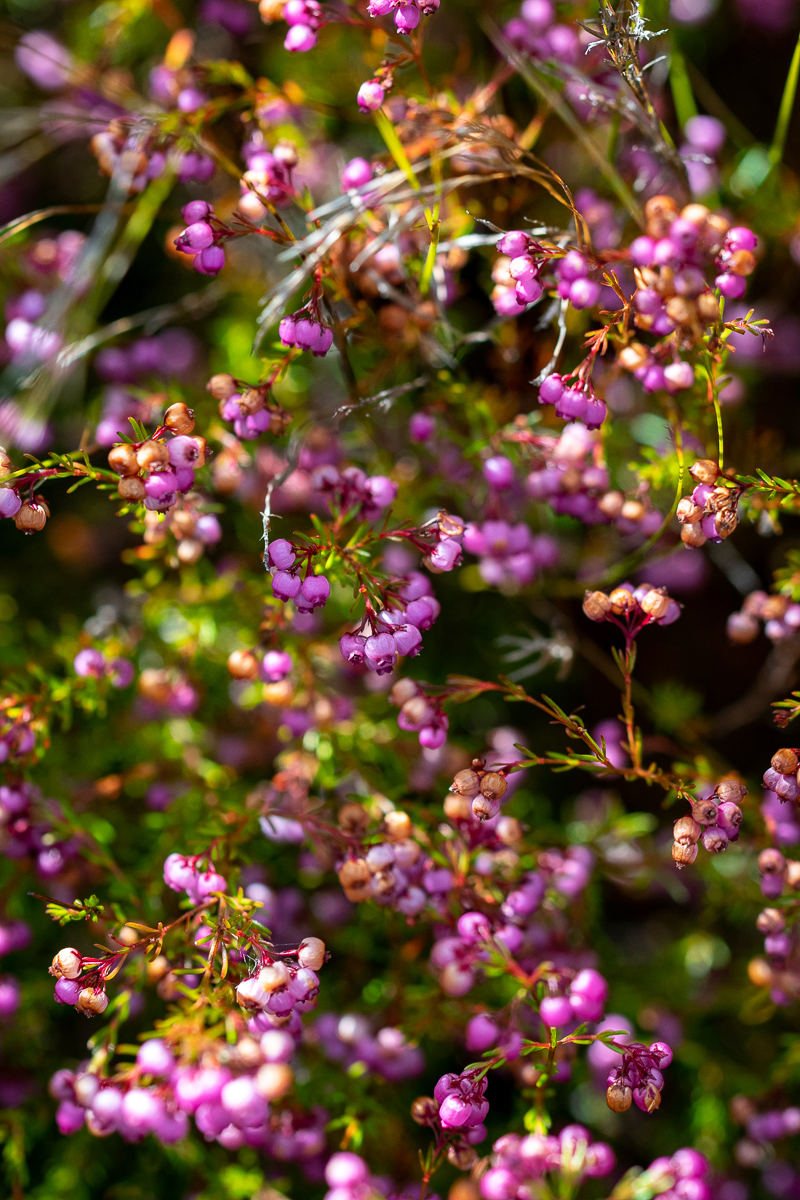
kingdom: Plantae
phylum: Tracheophyta
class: Magnoliopsida
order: Ericales
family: Ericaceae
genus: Erica
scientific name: Erica multumbellifera
